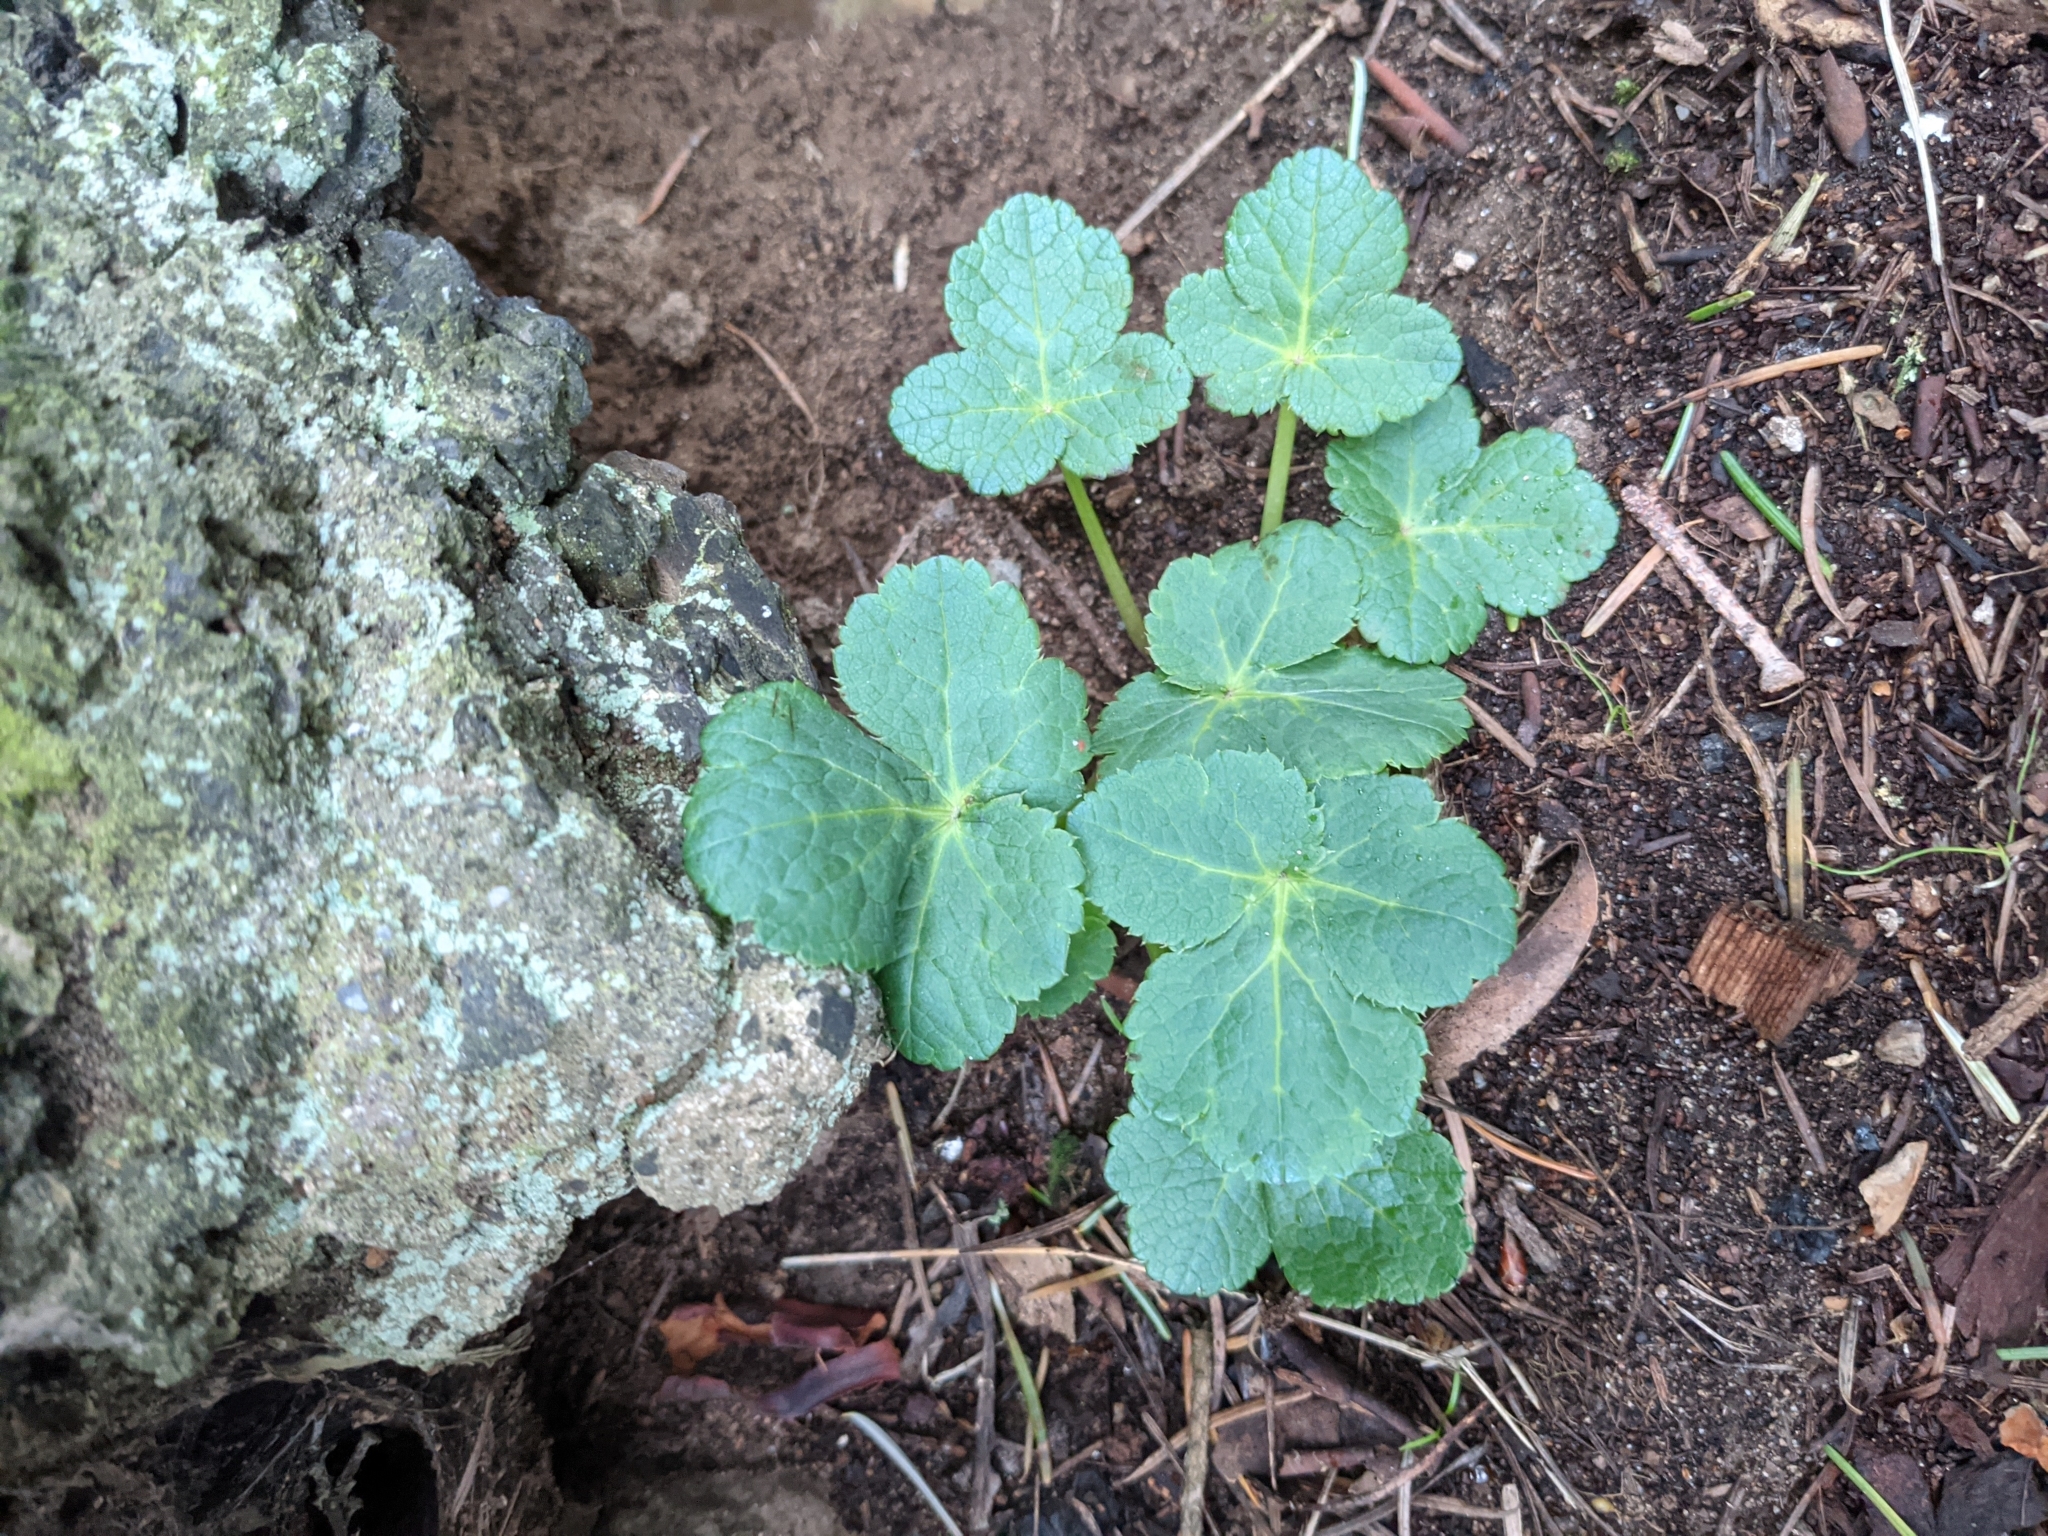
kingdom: Plantae
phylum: Tracheophyta
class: Magnoliopsida
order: Apiales
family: Apiaceae
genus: Sanicula
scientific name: Sanicula crassicaulis
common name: Western snakeroot
